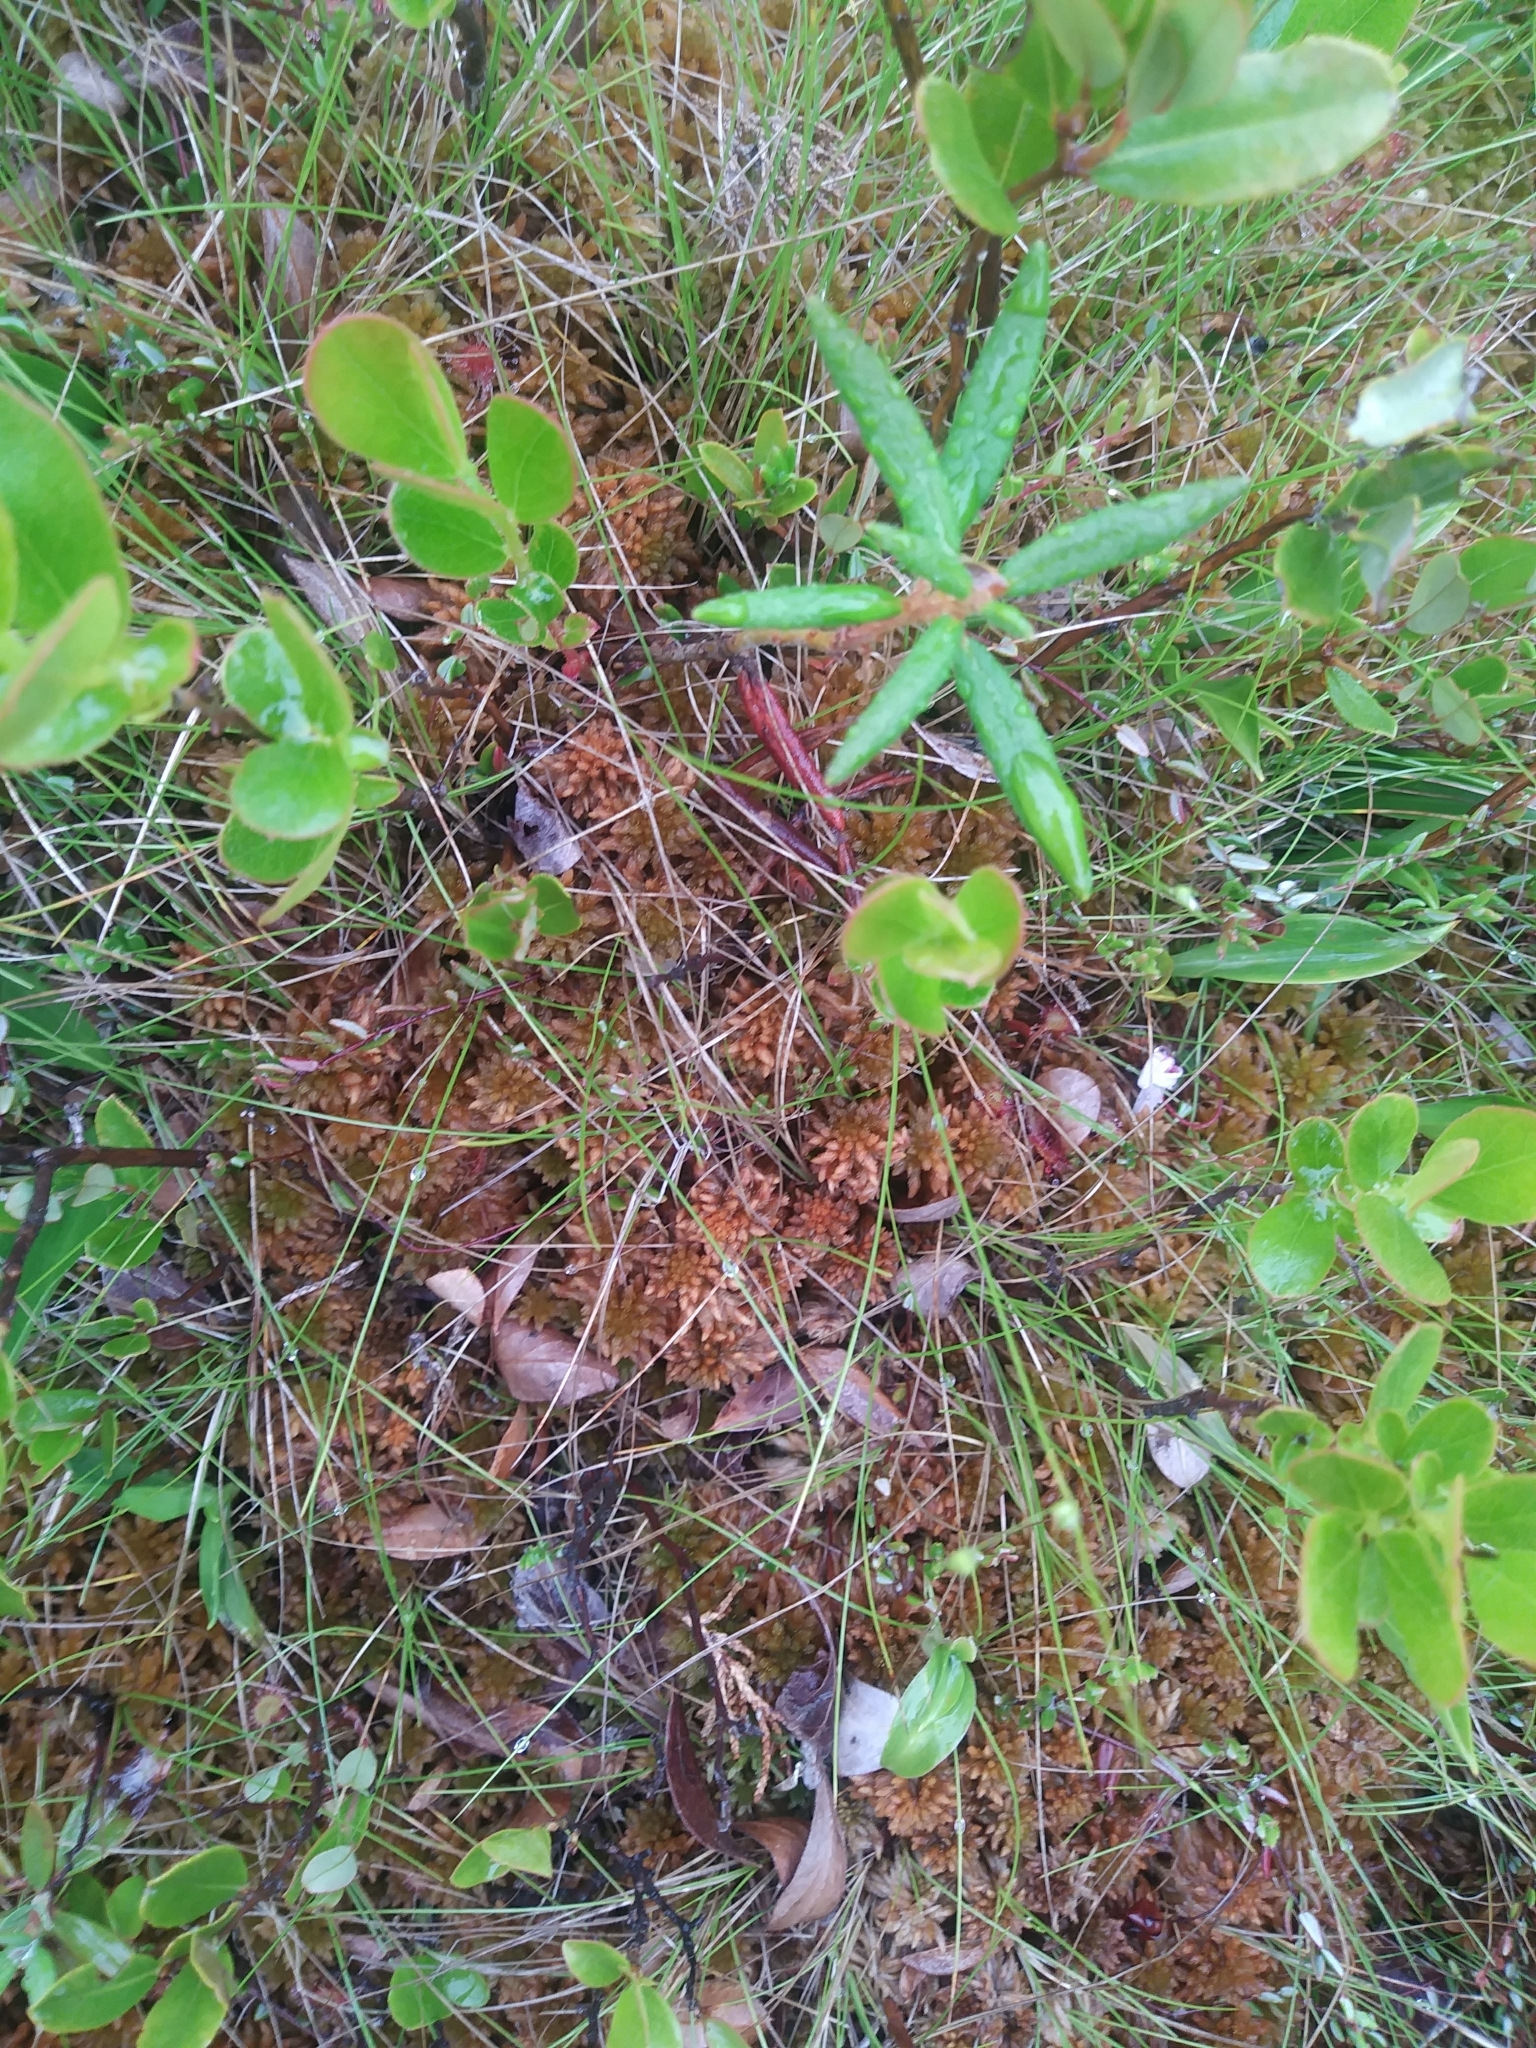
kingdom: Plantae
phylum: Tracheophyta
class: Liliopsida
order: Poales
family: Cyperaceae
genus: Carex
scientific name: Carex trisperma
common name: Three-seeded sedge
